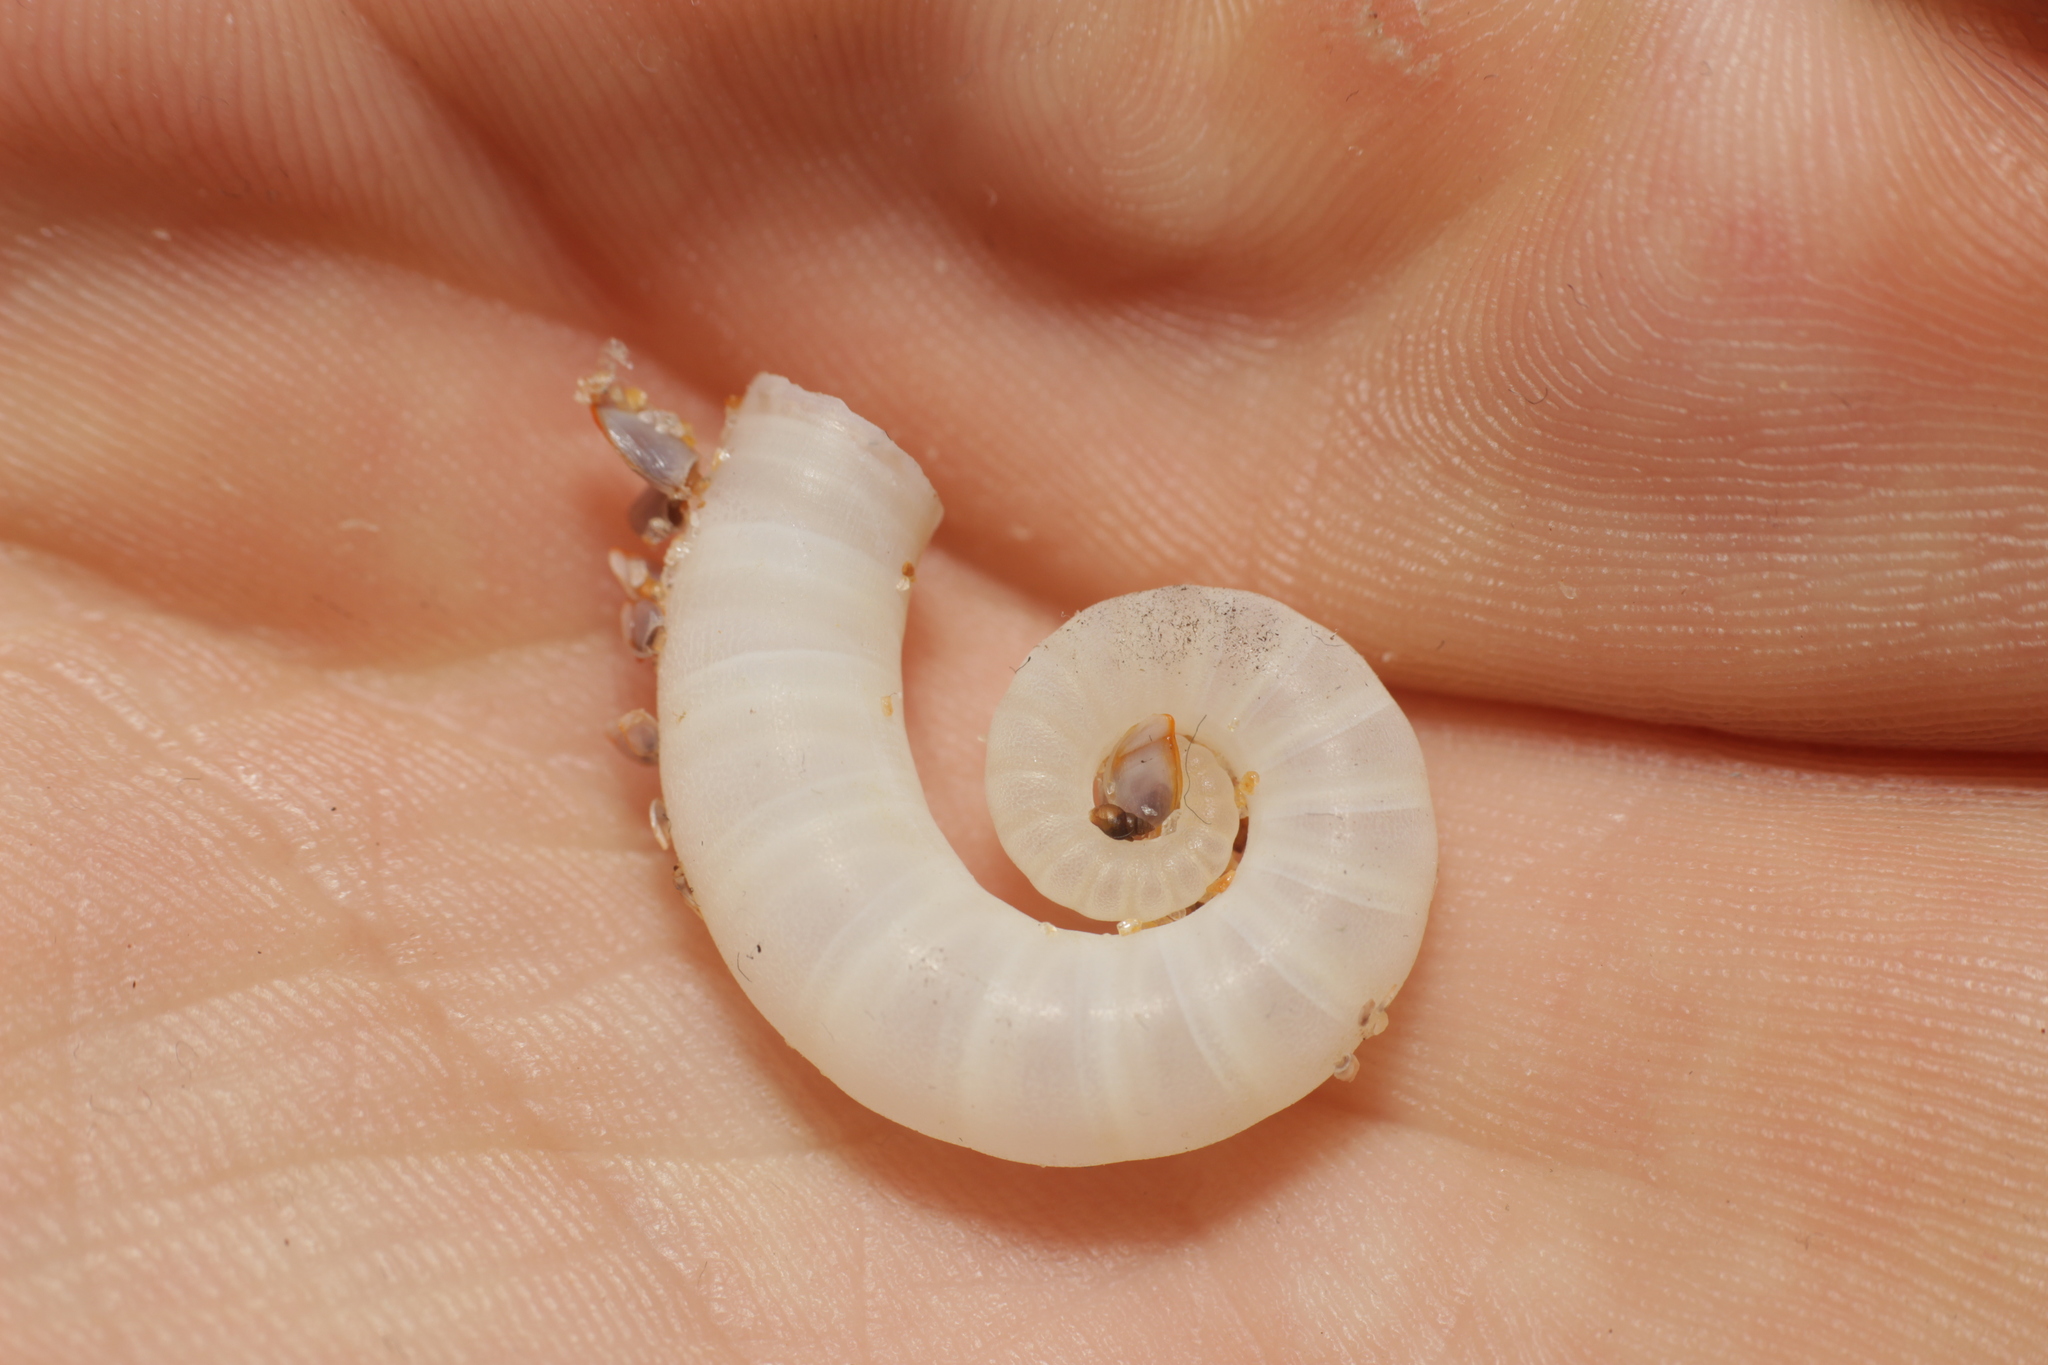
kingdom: Animalia
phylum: Mollusca
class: Cephalopoda
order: Spirulida
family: Spirulidae
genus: Spirula
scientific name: Spirula spirula
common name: Ram's horn squid
